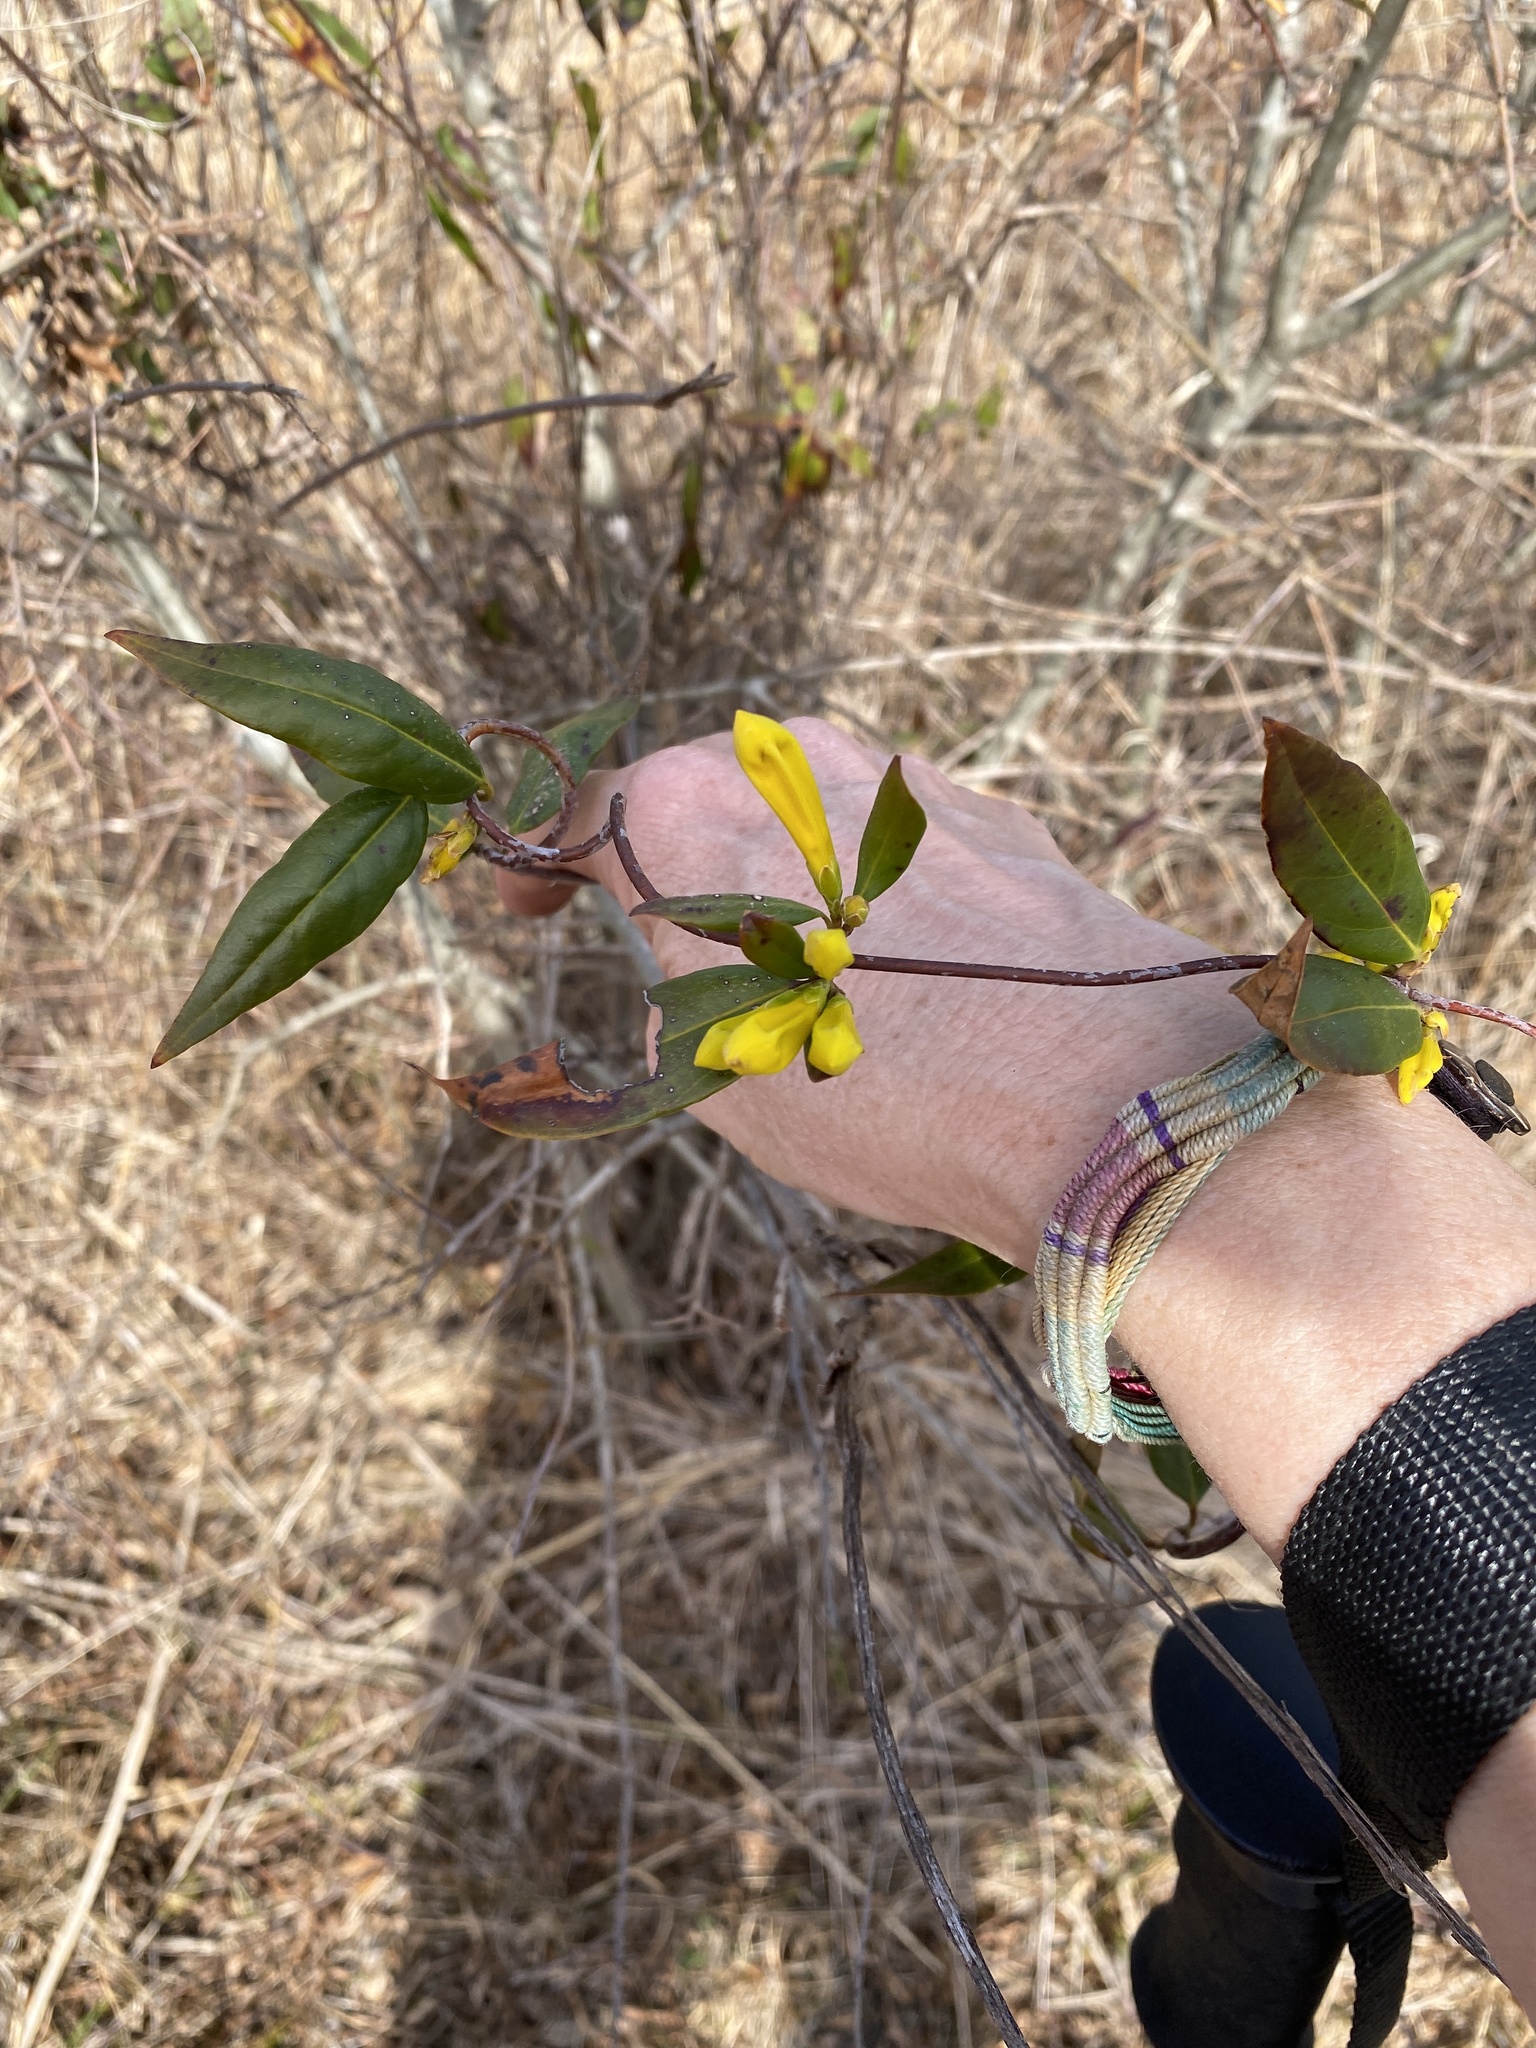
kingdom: Plantae
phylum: Tracheophyta
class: Magnoliopsida
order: Gentianales
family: Gelsemiaceae
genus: Gelsemium
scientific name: Gelsemium sempervirens
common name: Carolina-jasmine
